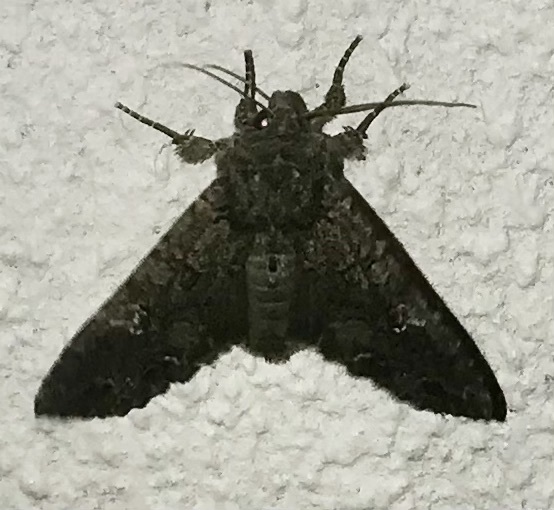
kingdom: Animalia
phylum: Arthropoda
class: Insecta
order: Lepidoptera
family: Noctuidae
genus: Mamestra
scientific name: Mamestra brassicae
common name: Cabbage moth
